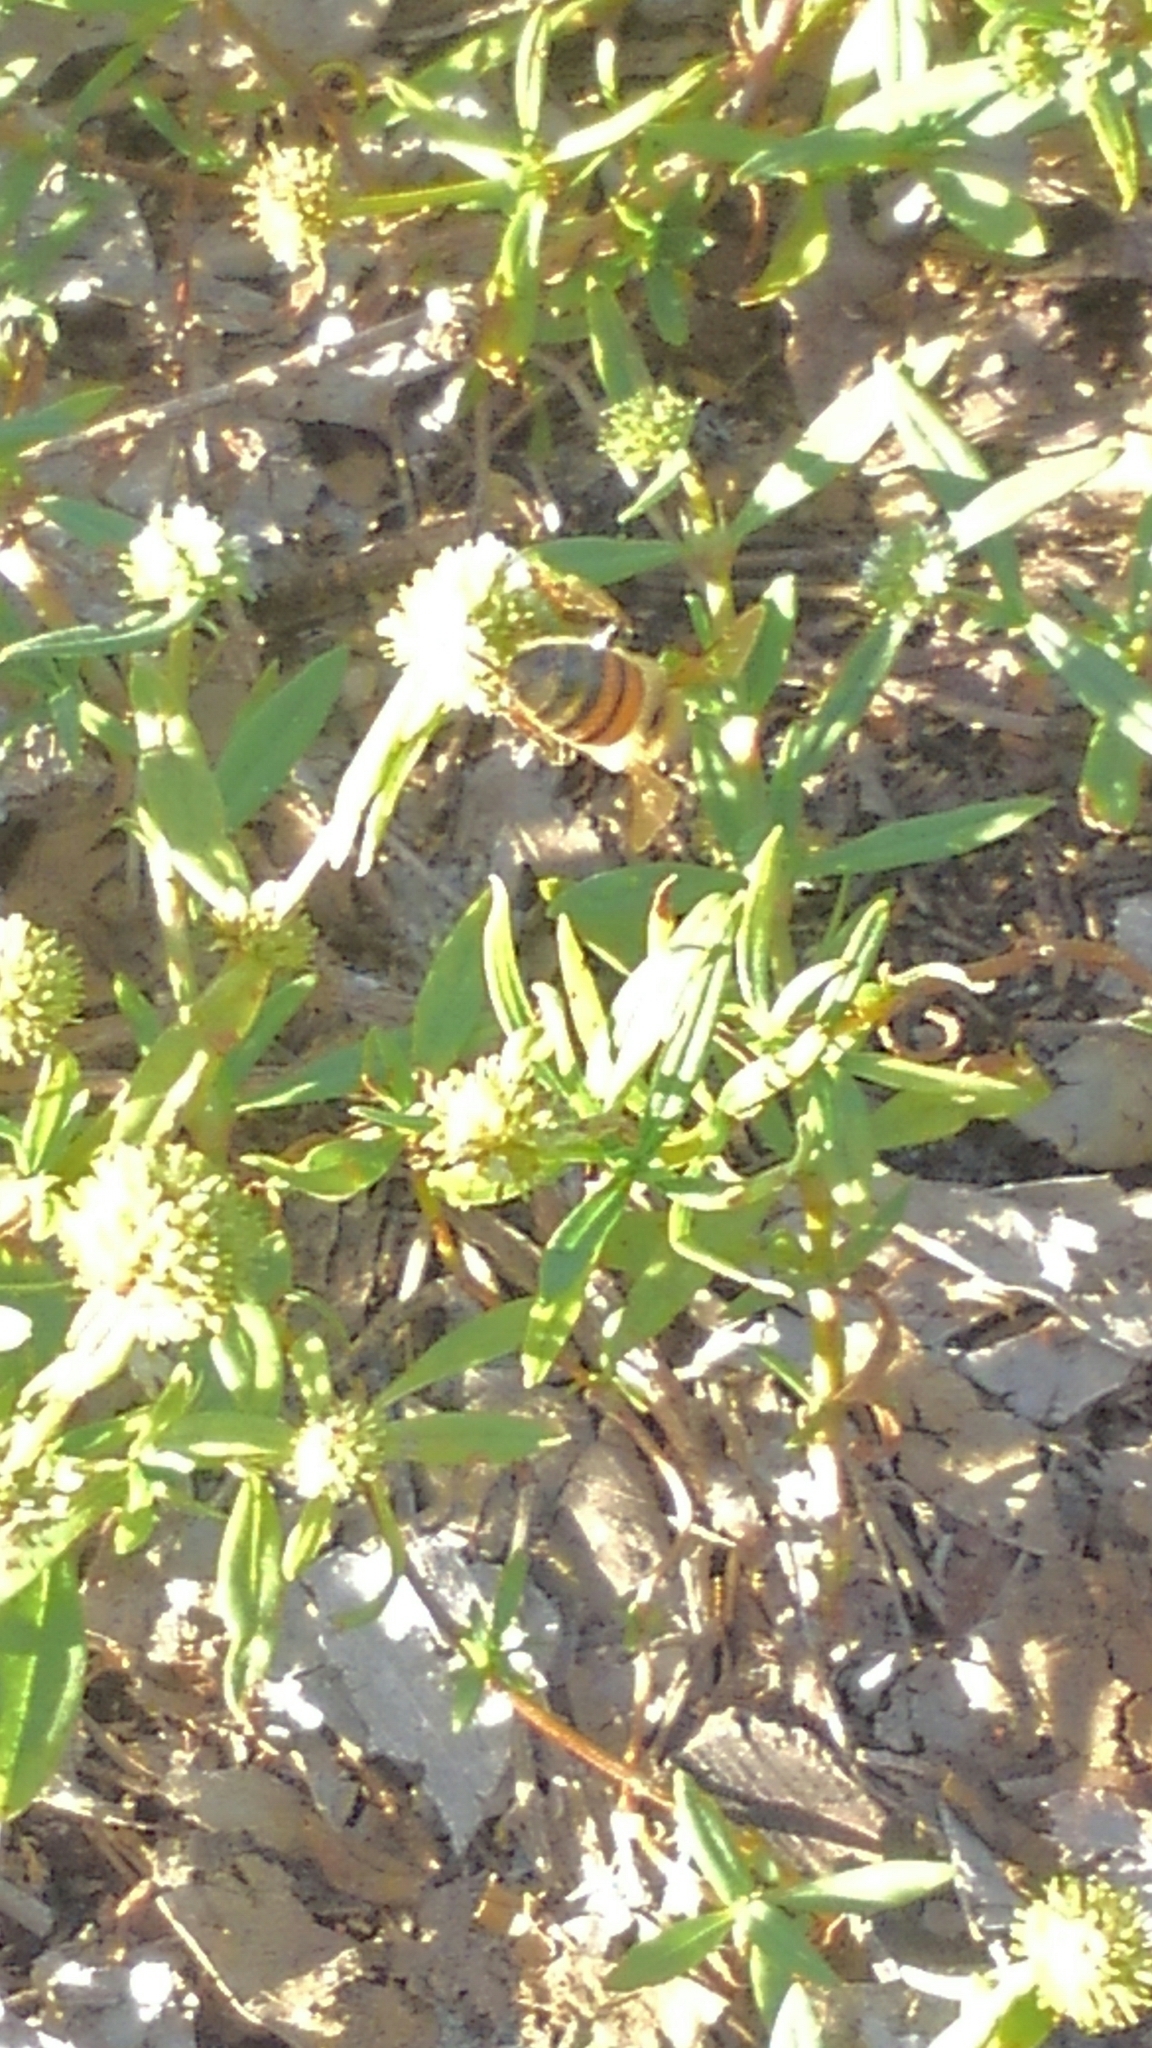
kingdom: Animalia
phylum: Arthropoda
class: Insecta
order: Hymenoptera
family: Apidae
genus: Apis
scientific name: Apis mellifera
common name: Honey bee
